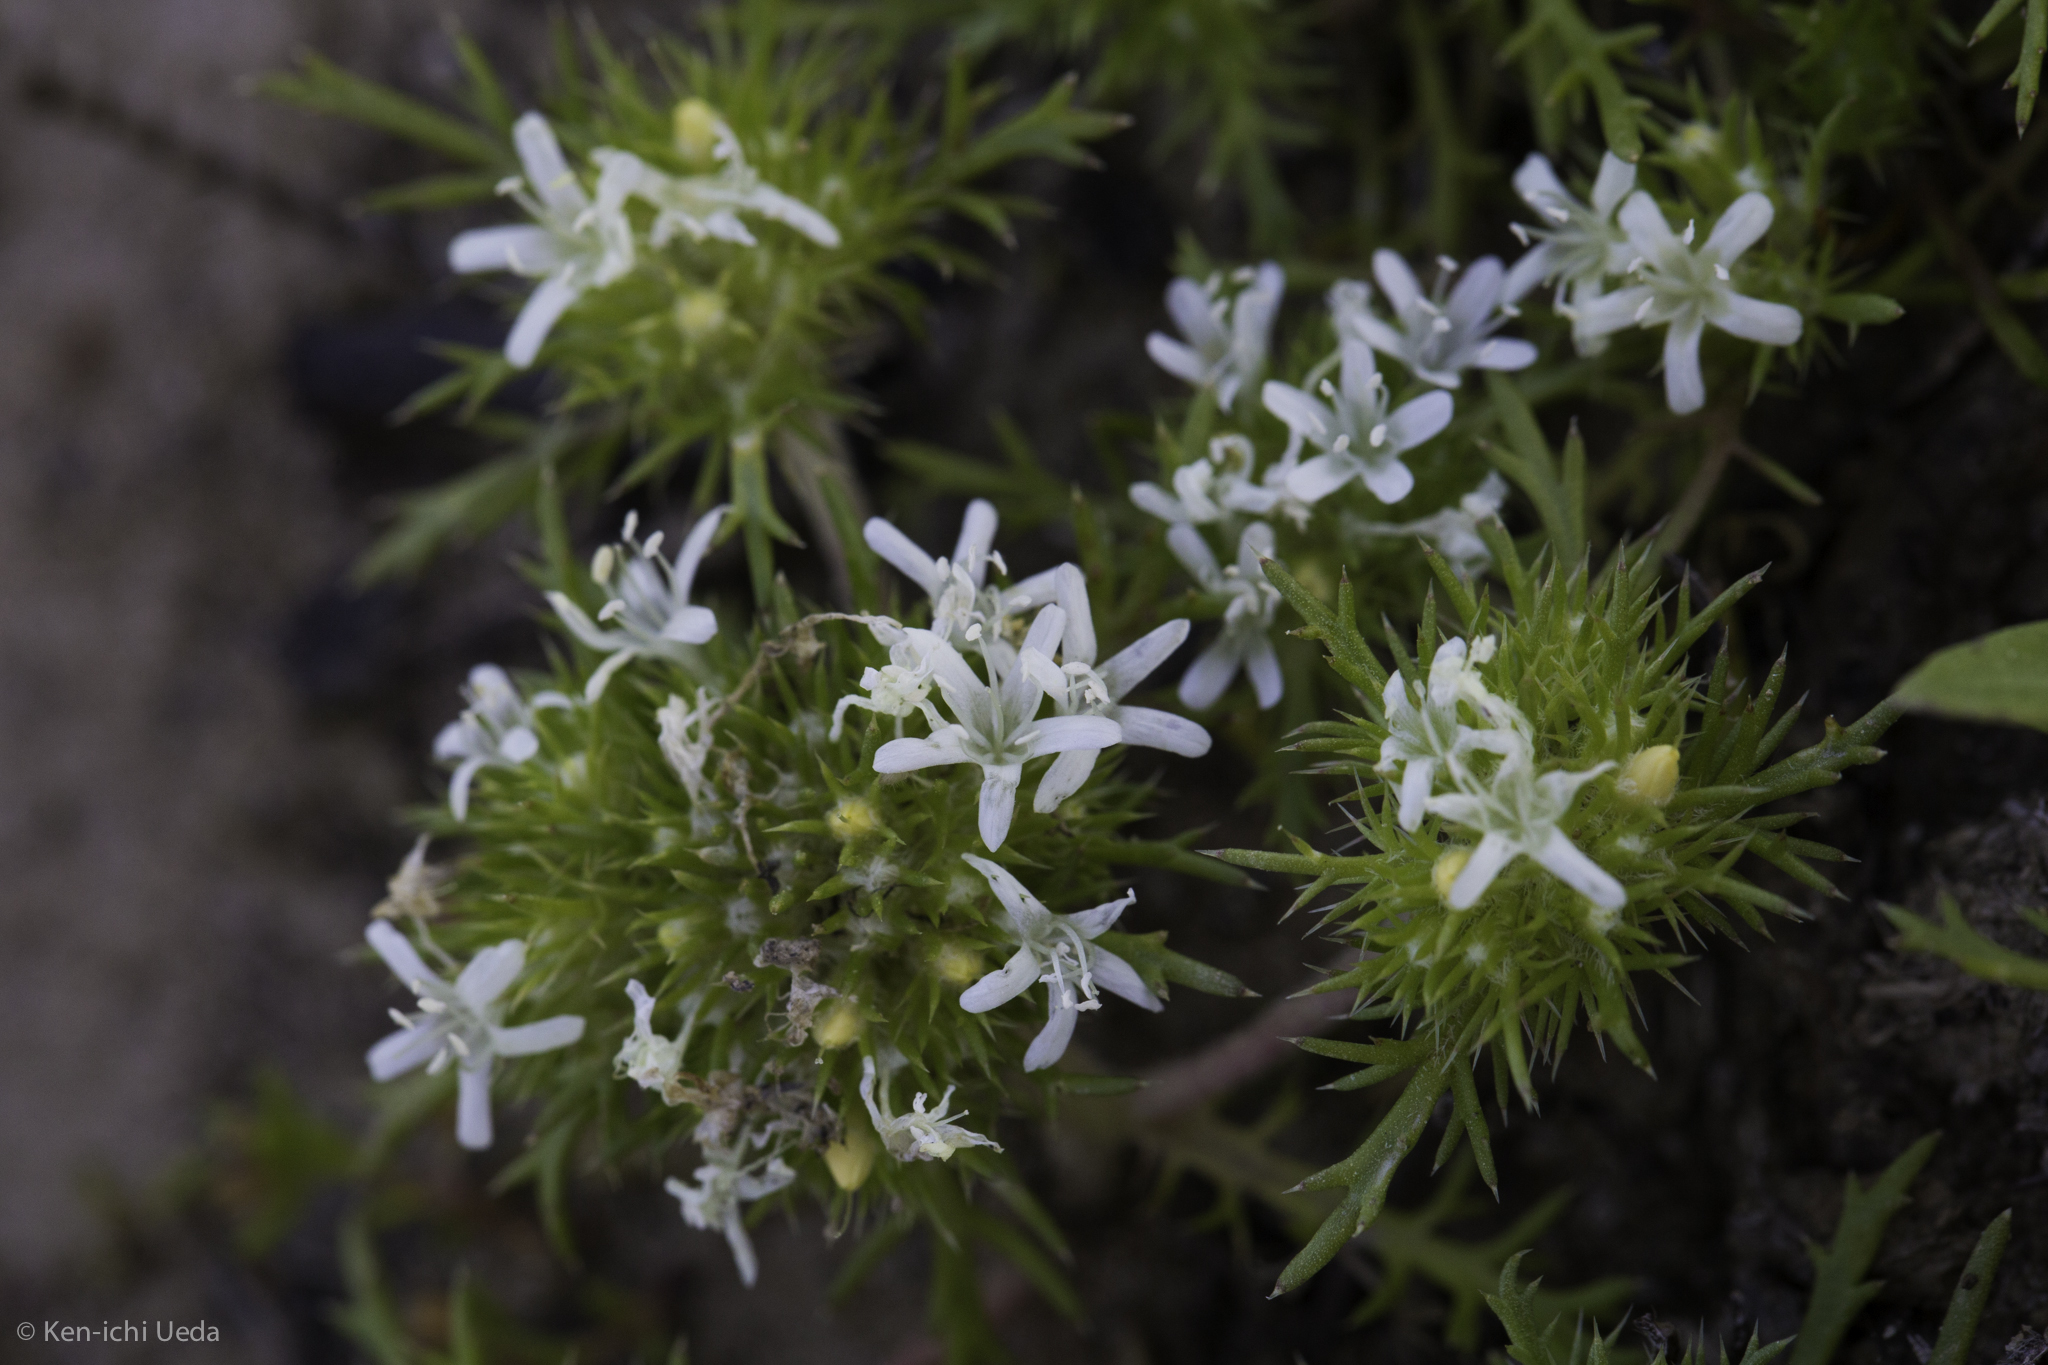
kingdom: Plantae
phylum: Tracheophyta
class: Magnoliopsida
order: Ericales
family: Polemoniaceae
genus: Navarretia
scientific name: Navarretia leucocephala
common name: White-flowered navarretia
